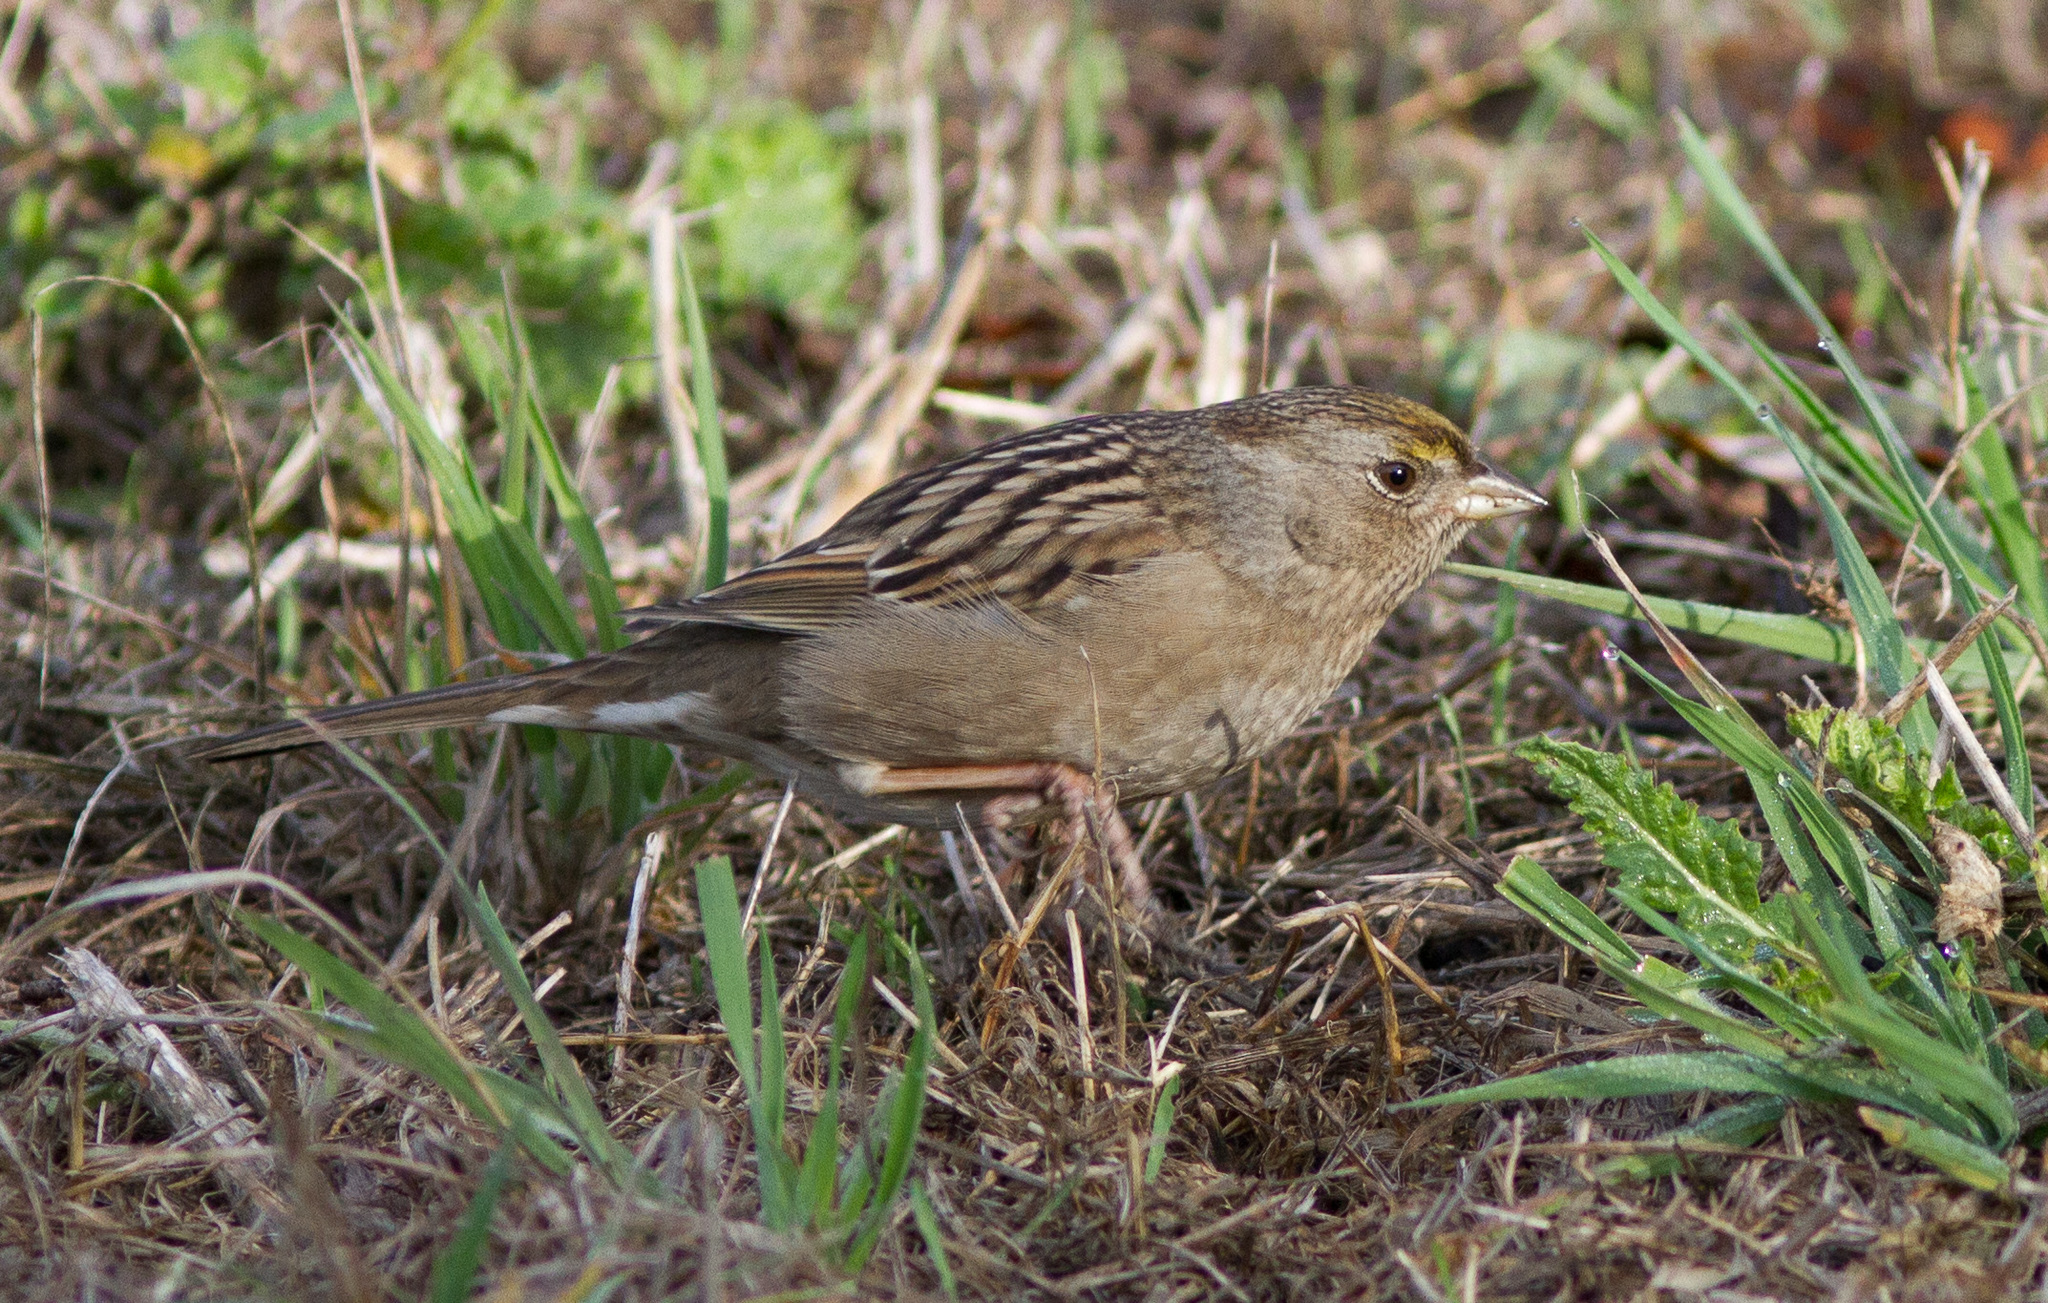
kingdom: Animalia
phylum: Chordata
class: Aves
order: Passeriformes
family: Passerellidae
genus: Zonotrichia
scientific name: Zonotrichia atricapilla
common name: Golden-crowned sparrow
